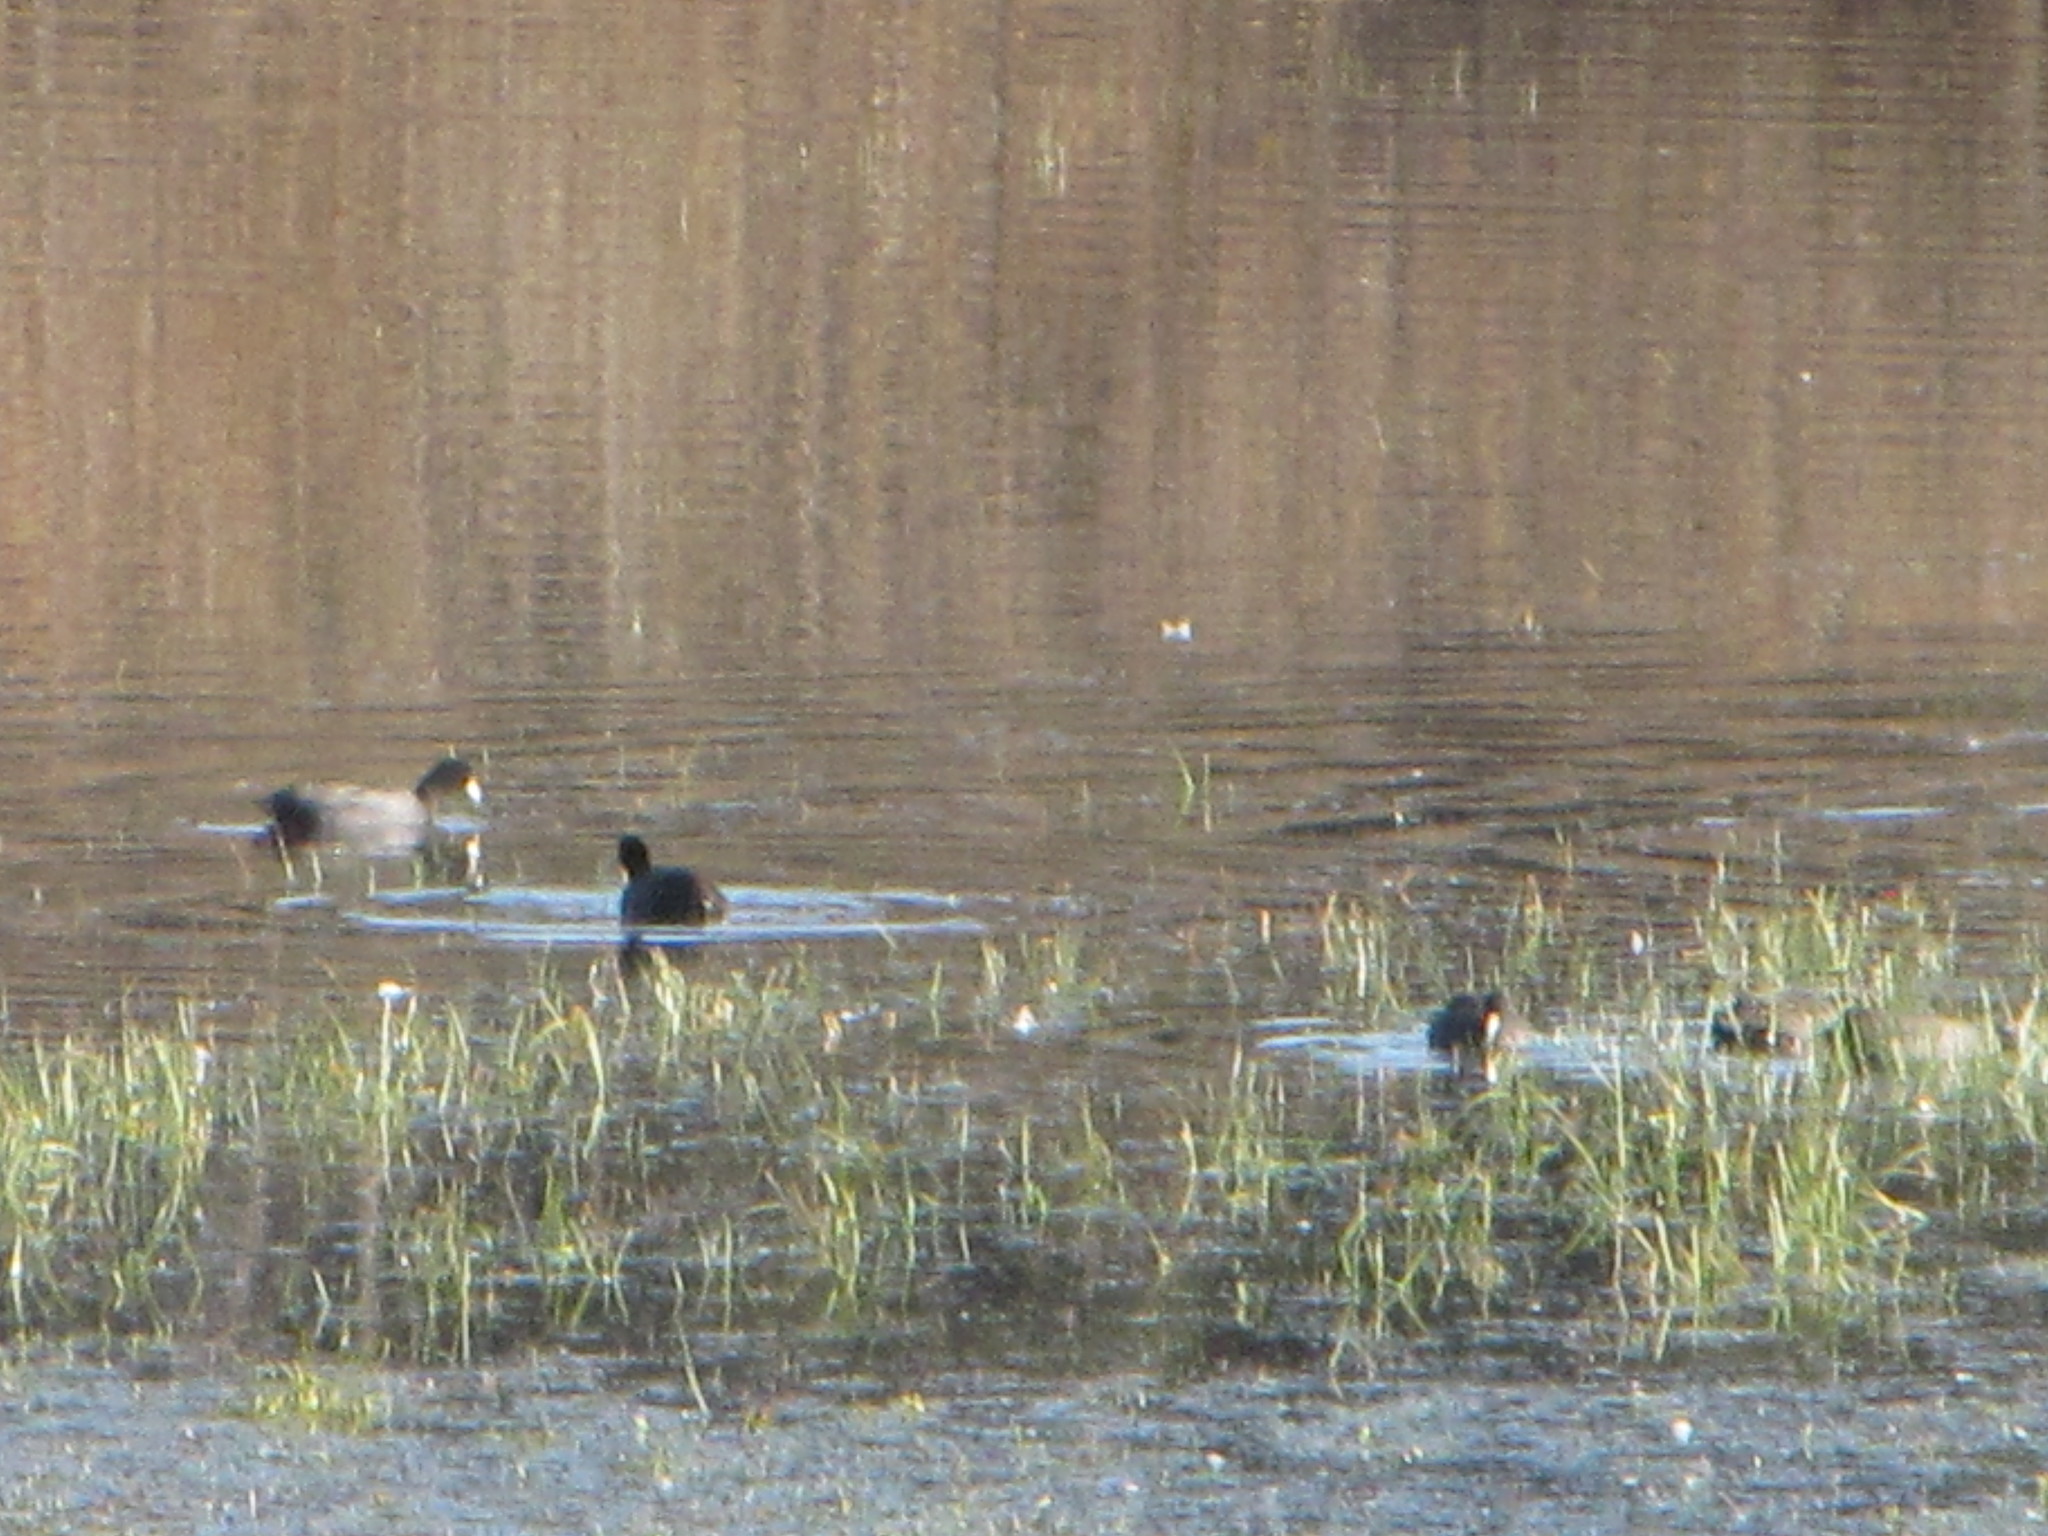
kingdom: Animalia
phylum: Chordata
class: Aves
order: Gruiformes
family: Rallidae
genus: Fulica
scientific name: Fulica americana
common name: American coot
